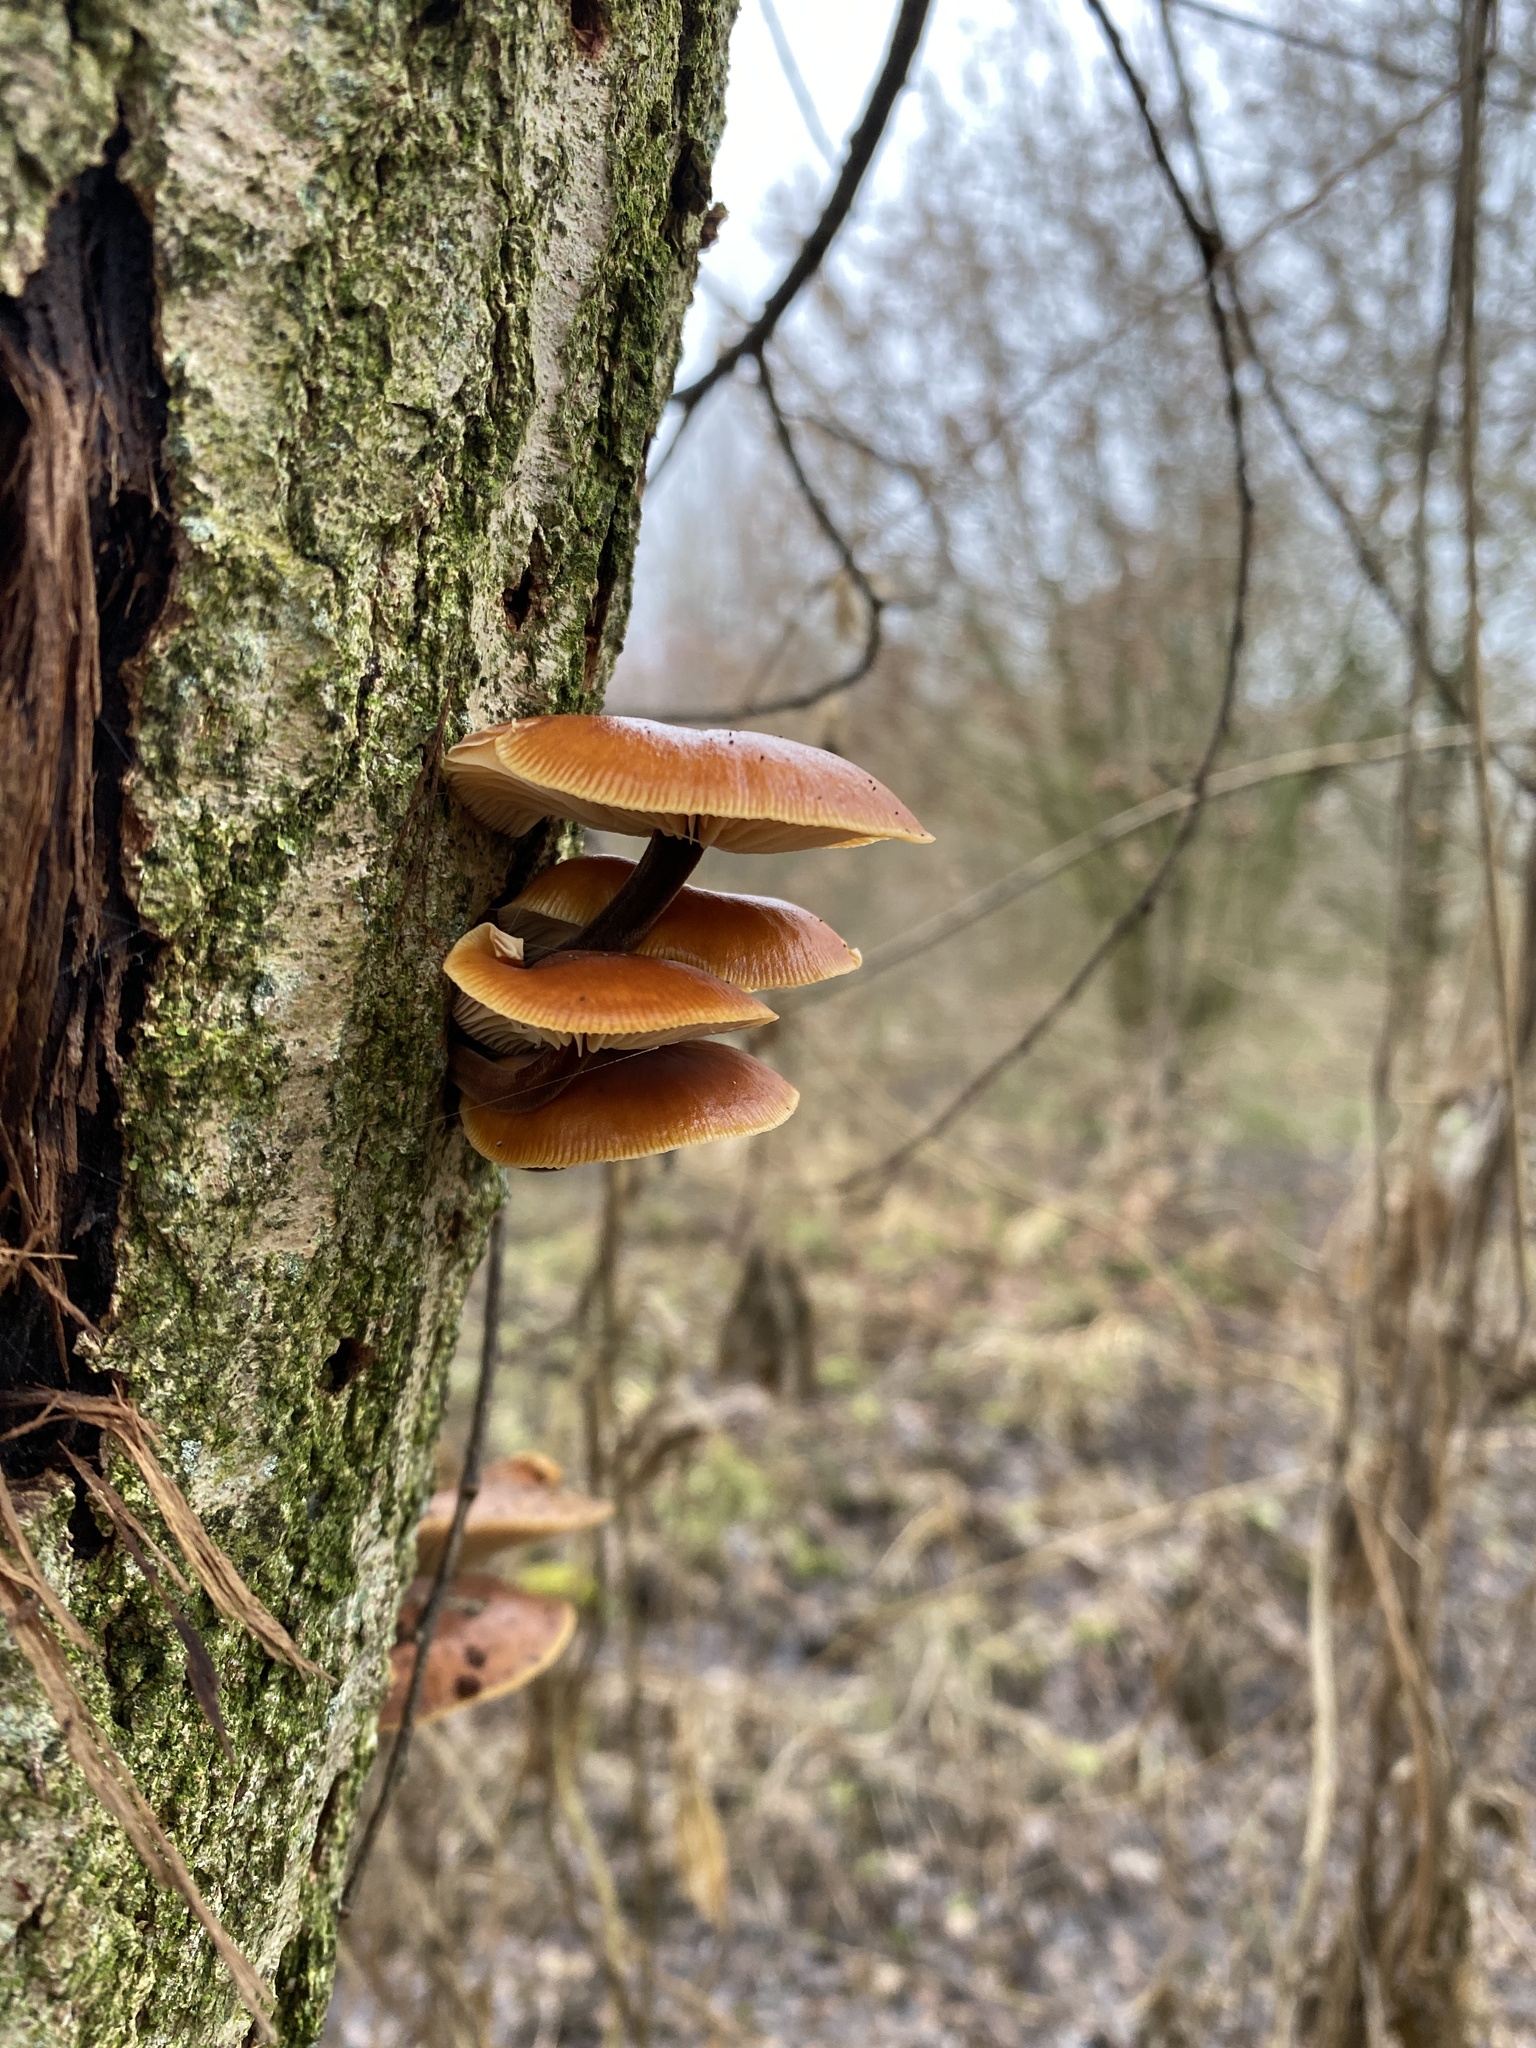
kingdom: Fungi
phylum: Basidiomycota
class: Agaricomycetes
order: Agaricales
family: Physalacriaceae
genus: Flammulina
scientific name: Flammulina
